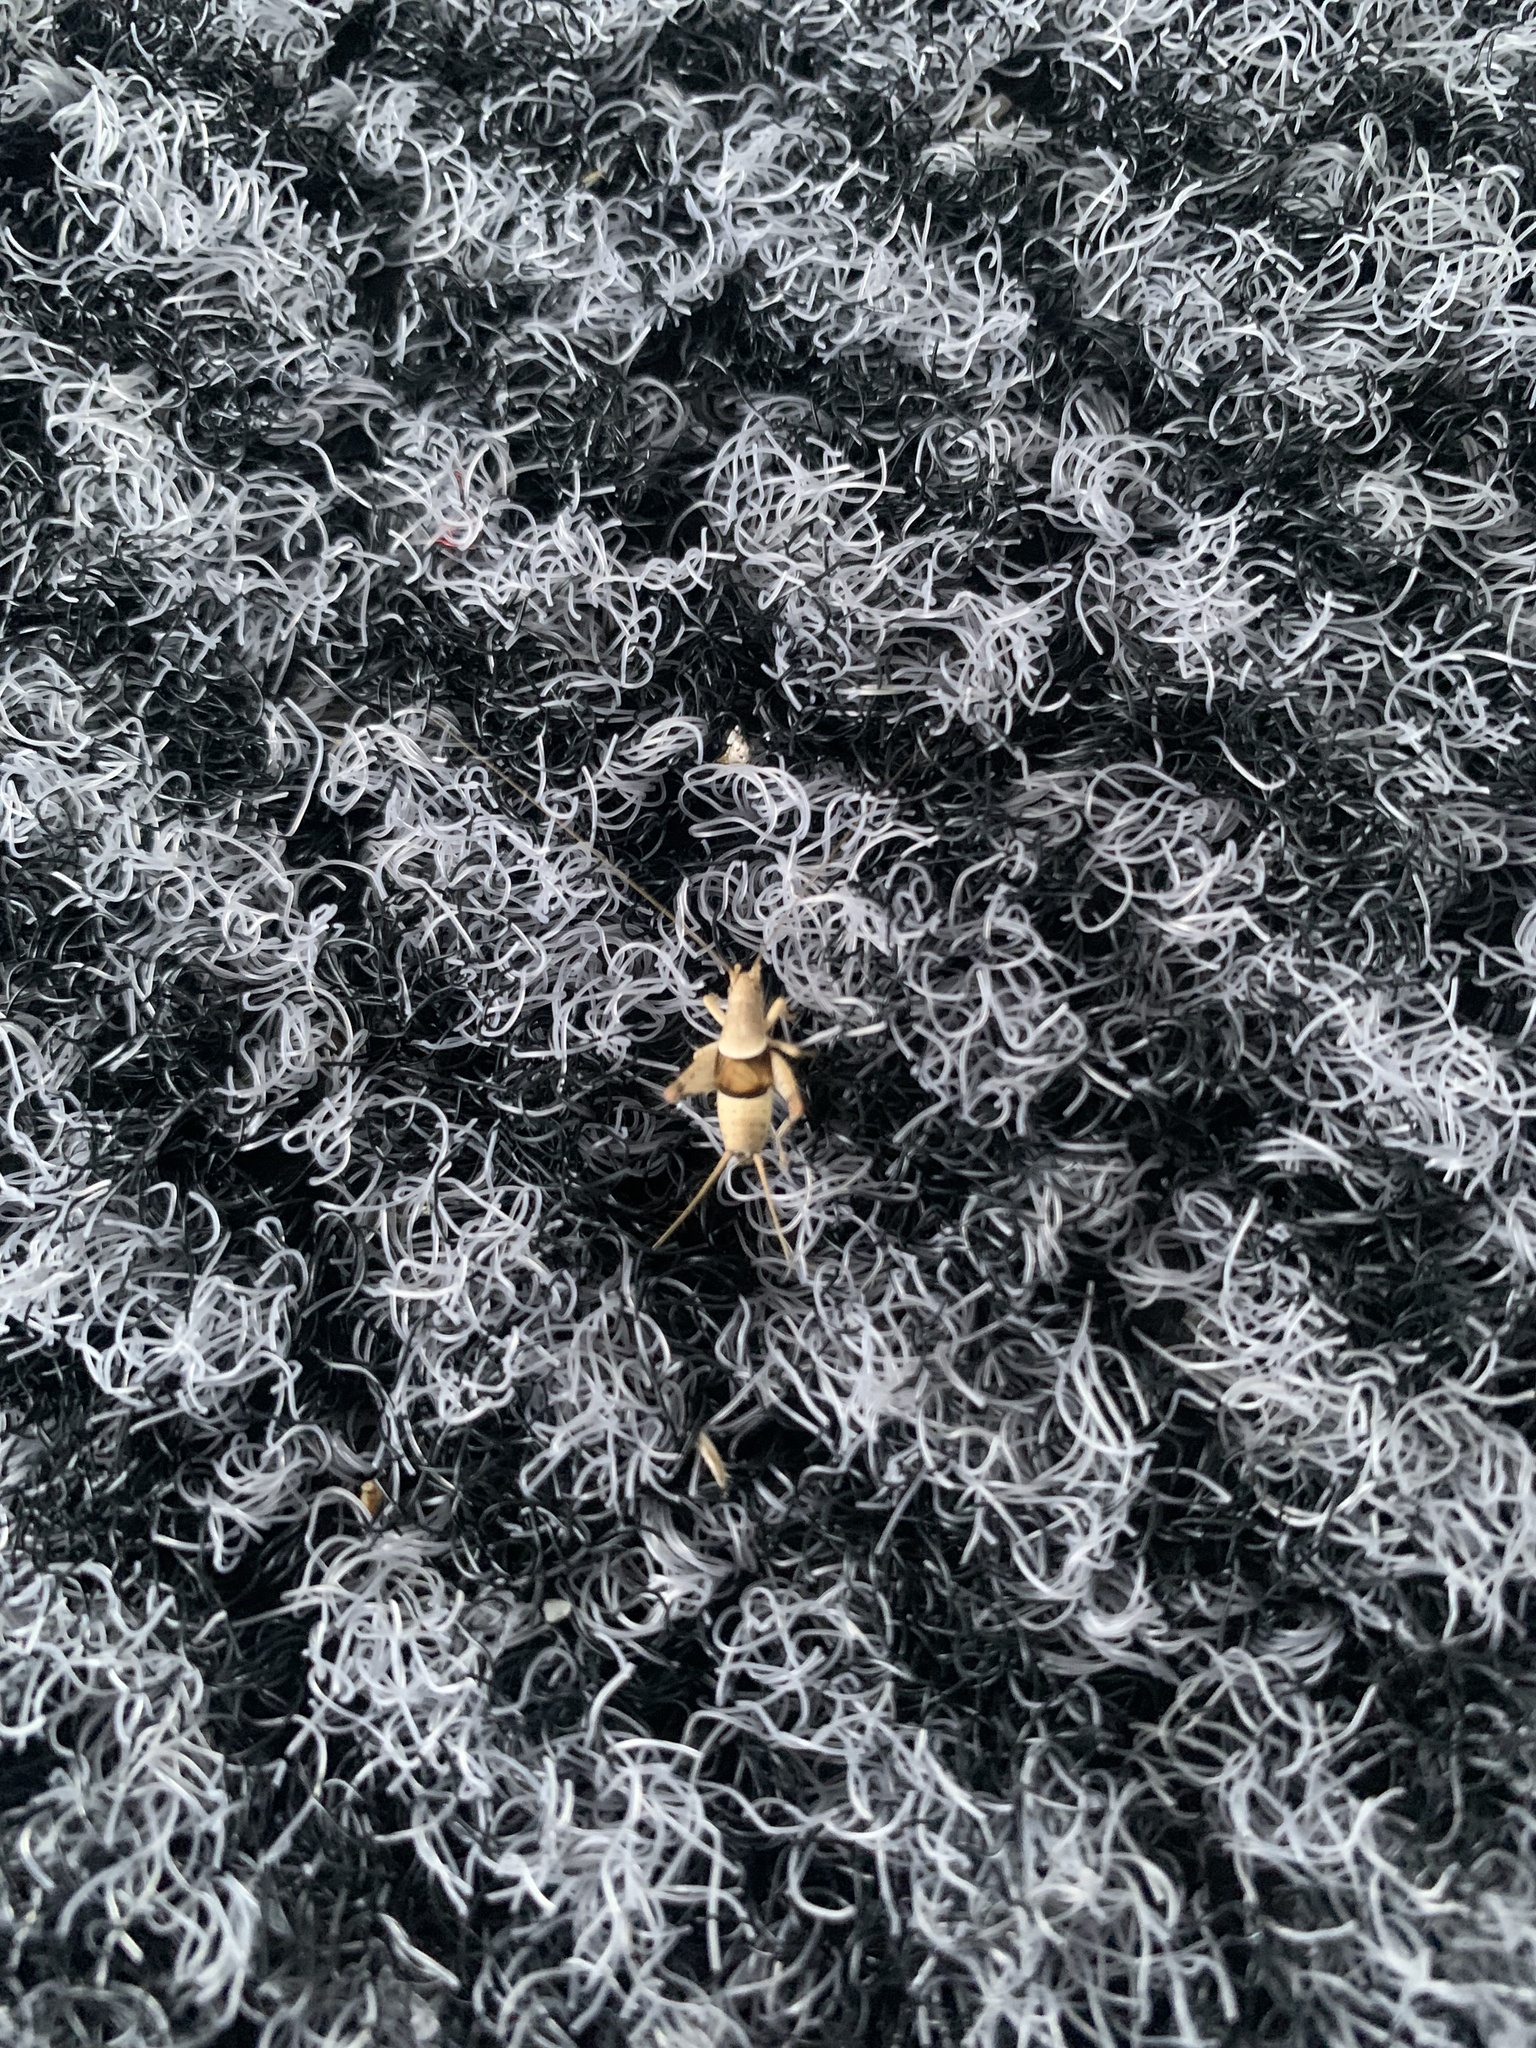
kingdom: Animalia
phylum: Arthropoda
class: Insecta
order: Orthoptera
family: Mogoplistidae
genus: Ornebius
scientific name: Ornebius kanetataki
